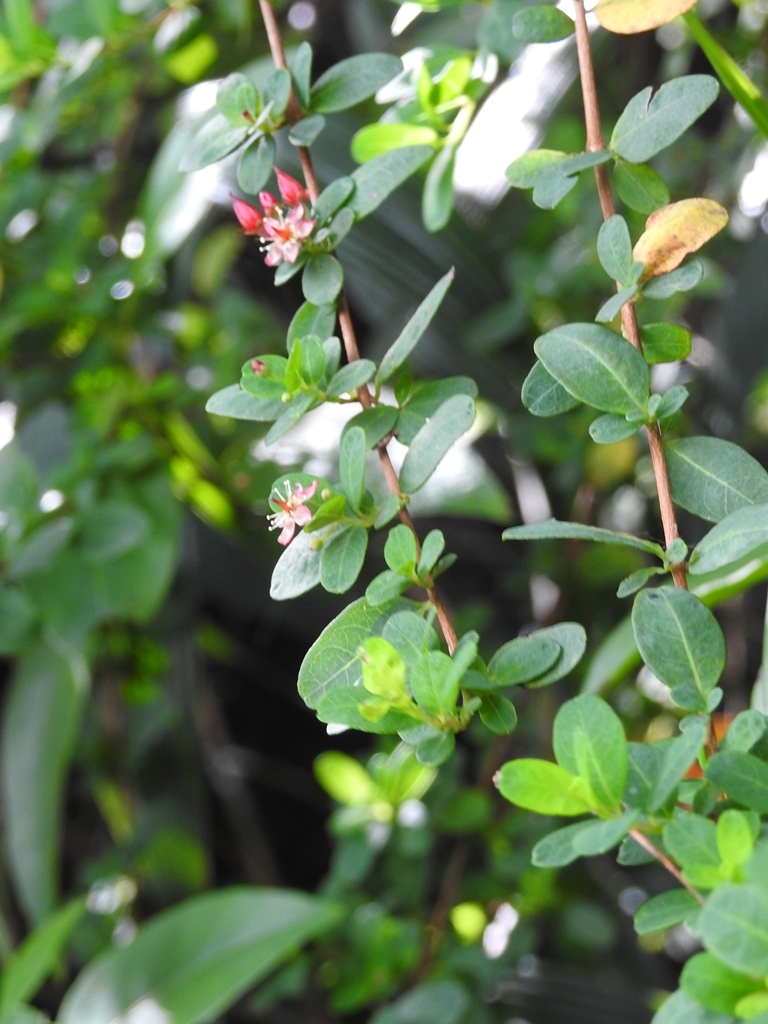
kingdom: Plantae
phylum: Tracheophyta
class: Magnoliopsida
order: Malpighiales
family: Hypericaceae
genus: Hypericum
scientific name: Hypericum calcicola
